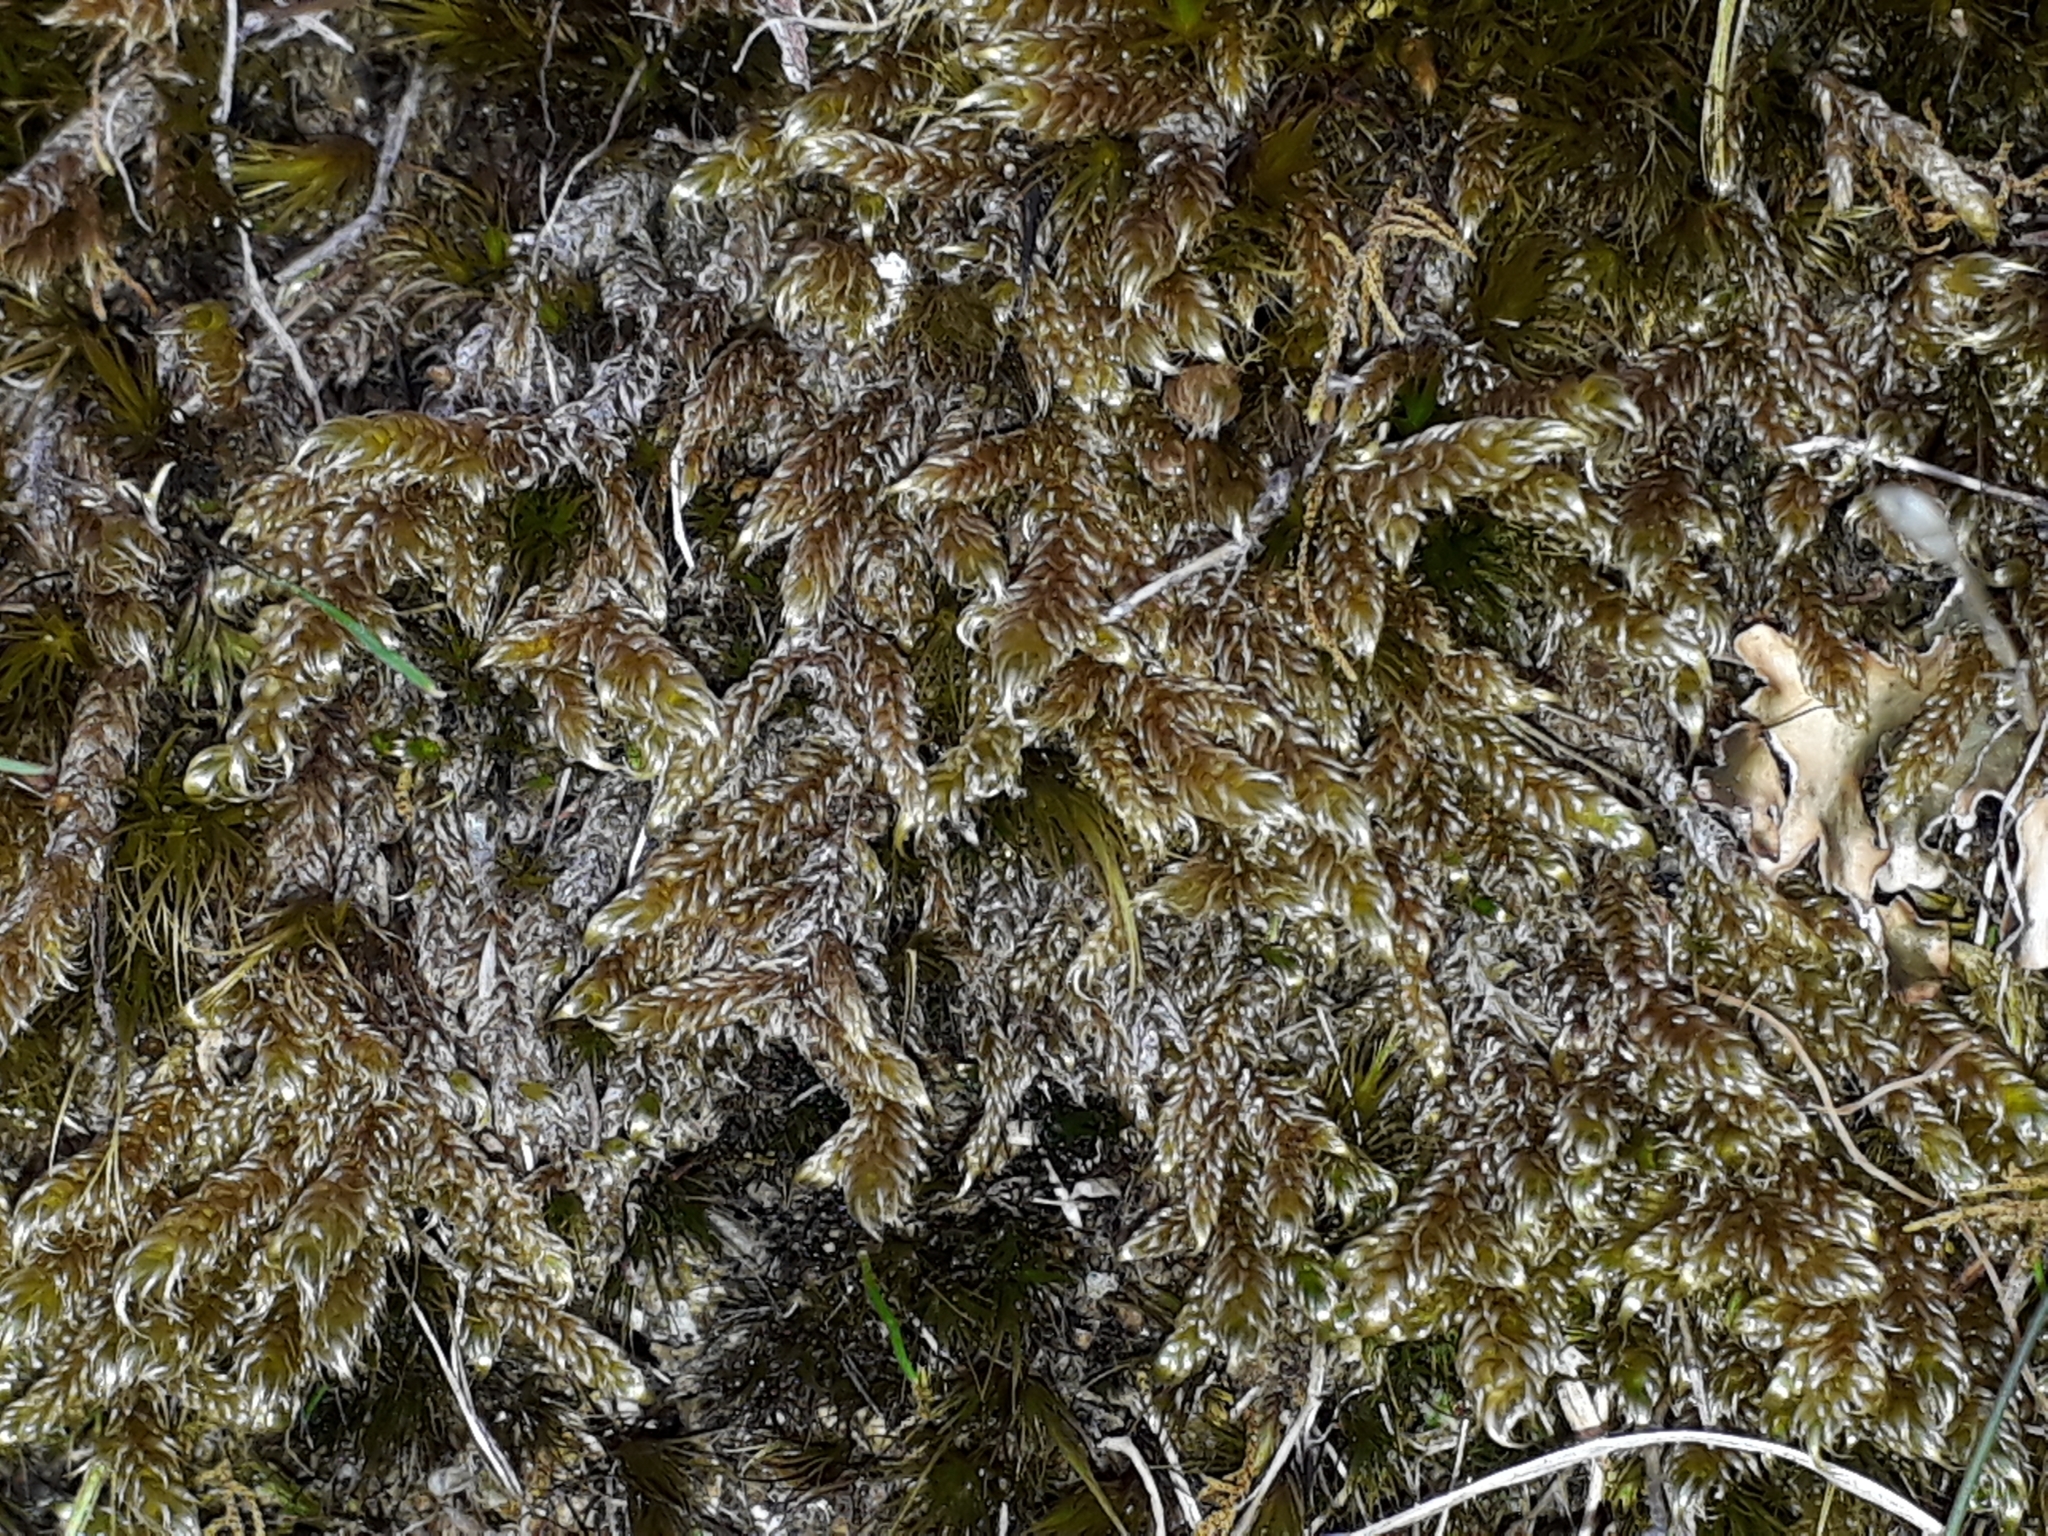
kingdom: Plantae
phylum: Bryophyta
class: Bryopsida
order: Hypnales
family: Hypnaceae
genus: Hypnum
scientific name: Hypnum cupressiforme
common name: Cypress-leaved plait-moss
